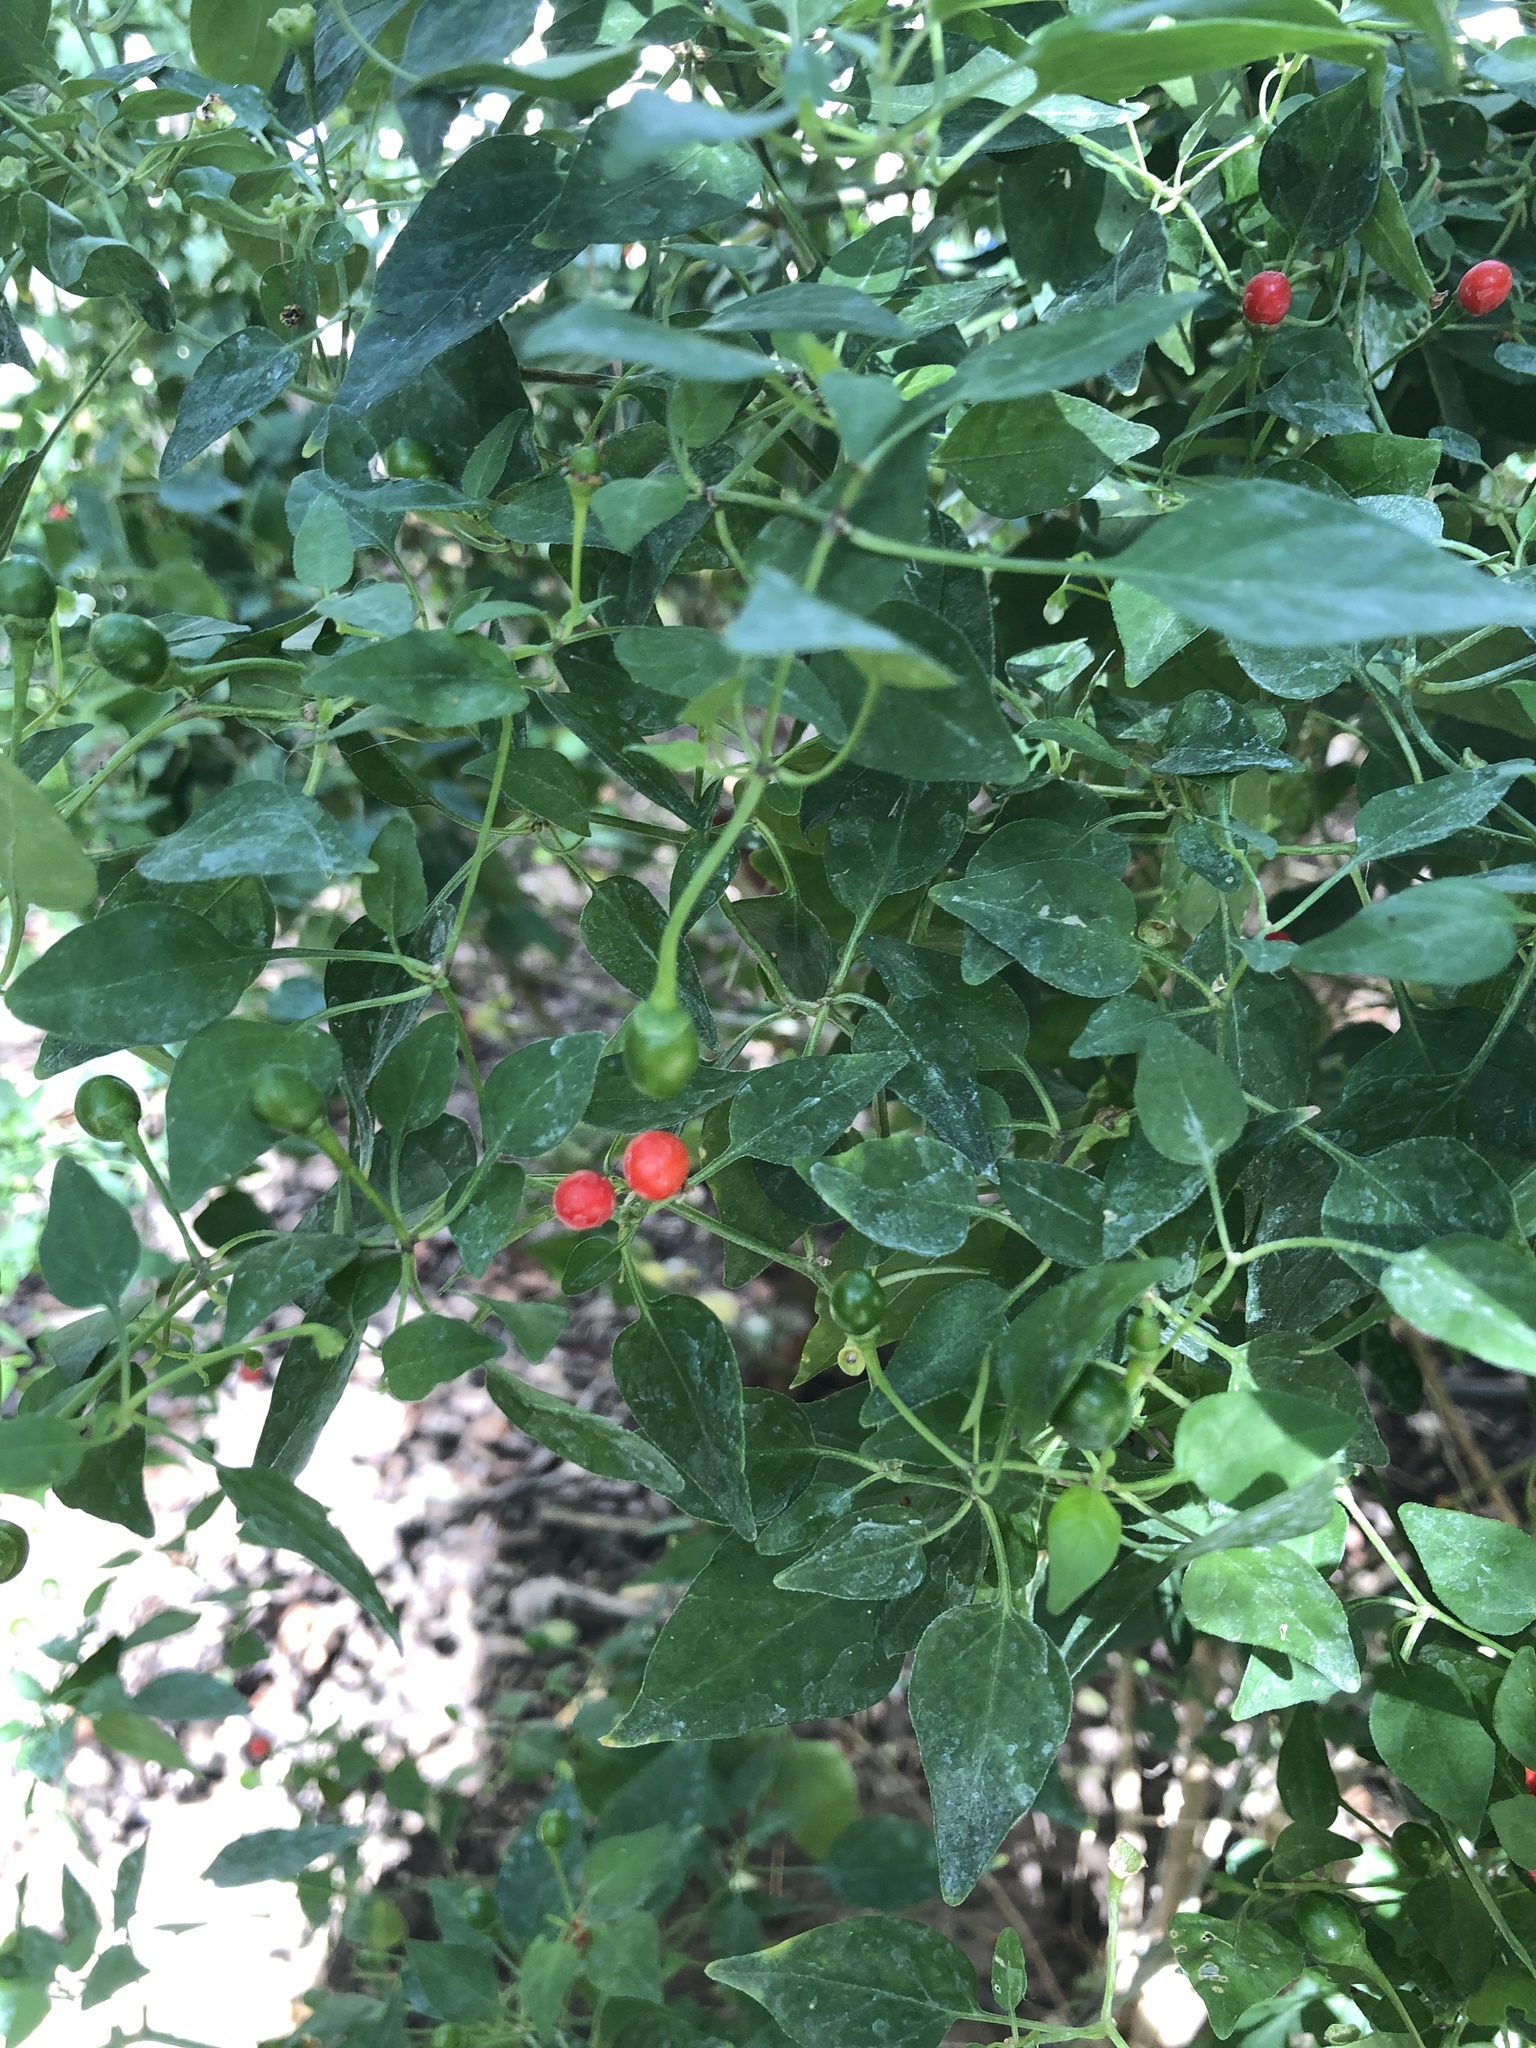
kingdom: Plantae
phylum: Tracheophyta
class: Magnoliopsida
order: Solanales
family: Solanaceae
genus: Capsicum
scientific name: Capsicum annuum
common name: Sweet pepper
